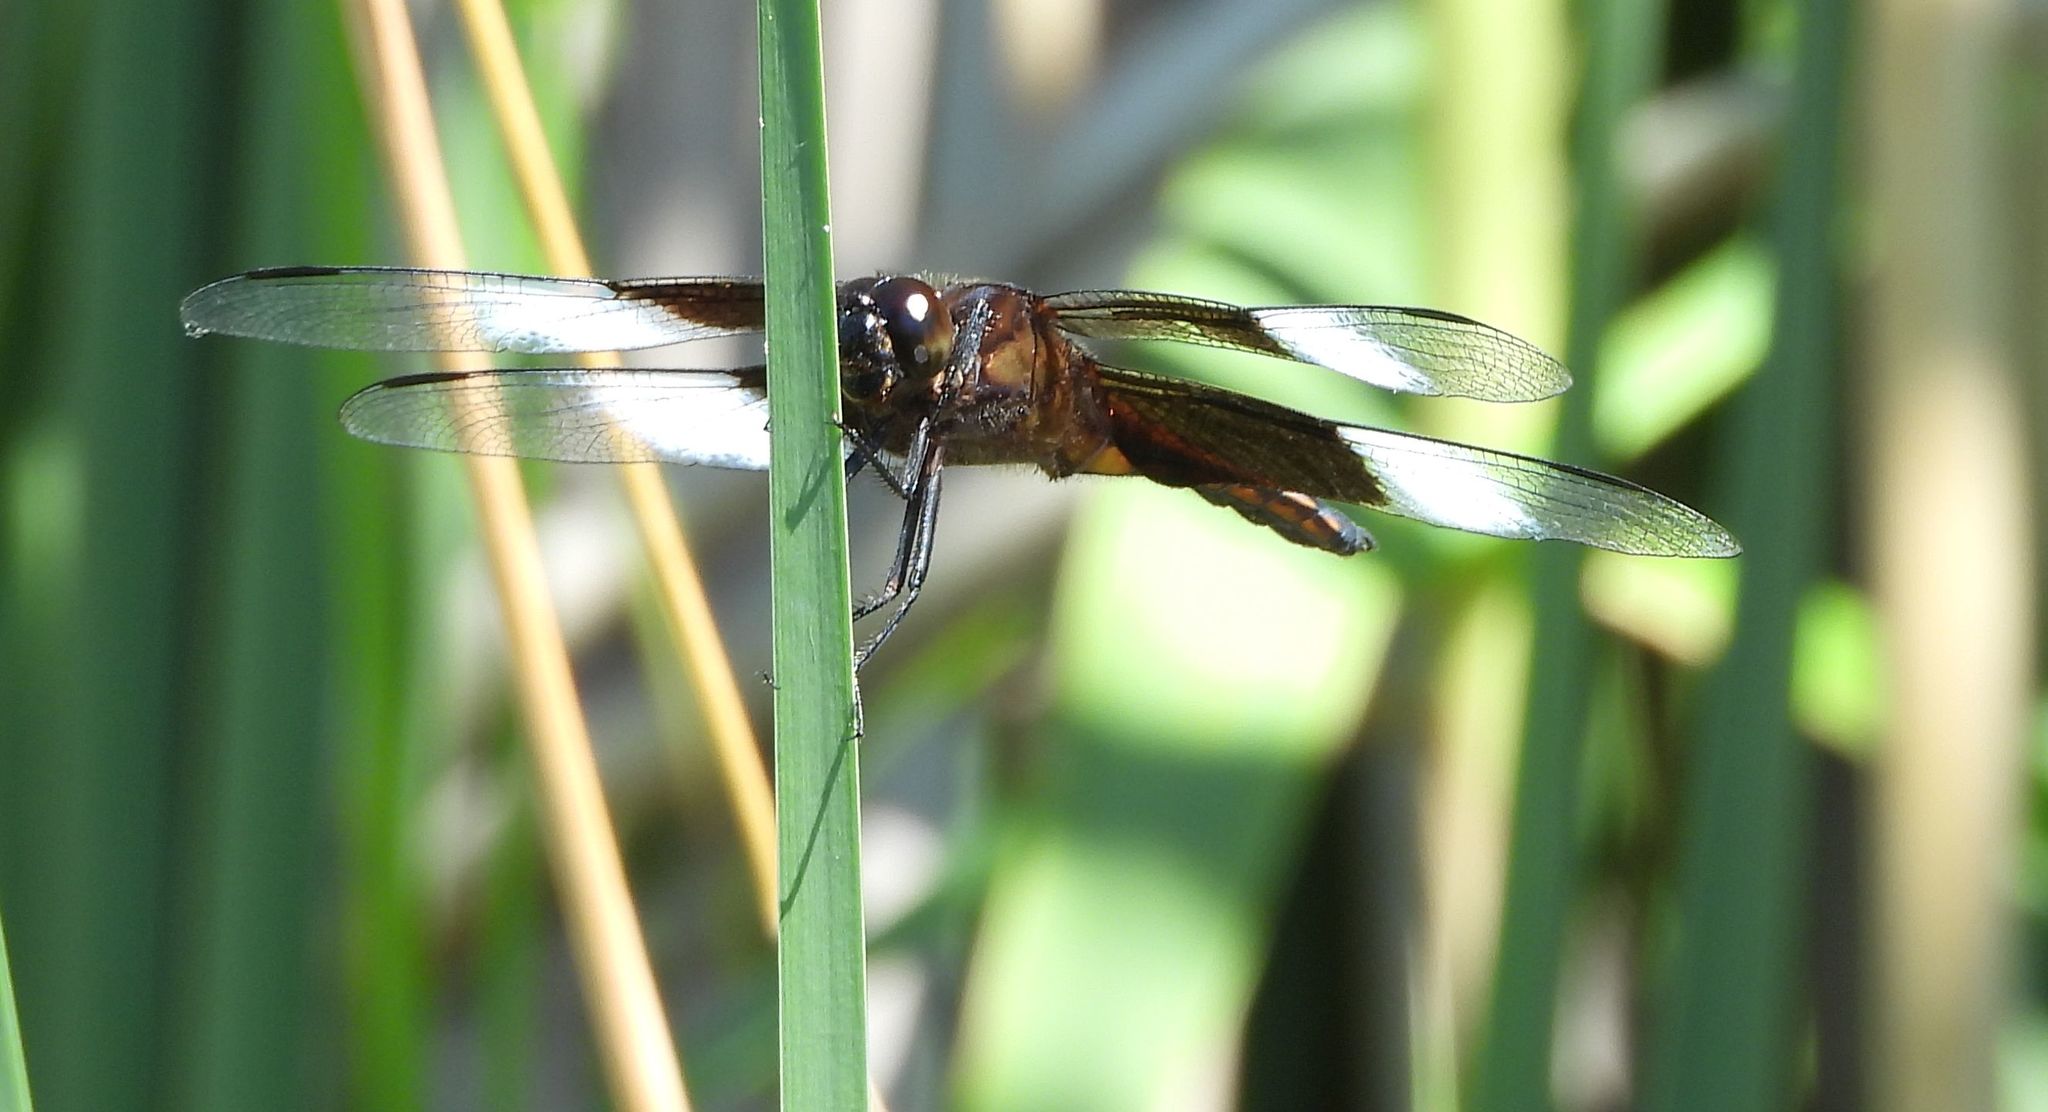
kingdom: Animalia
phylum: Arthropoda
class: Insecta
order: Odonata
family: Libellulidae
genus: Libellula
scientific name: Libellula luctuosa
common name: Widow skimmer
